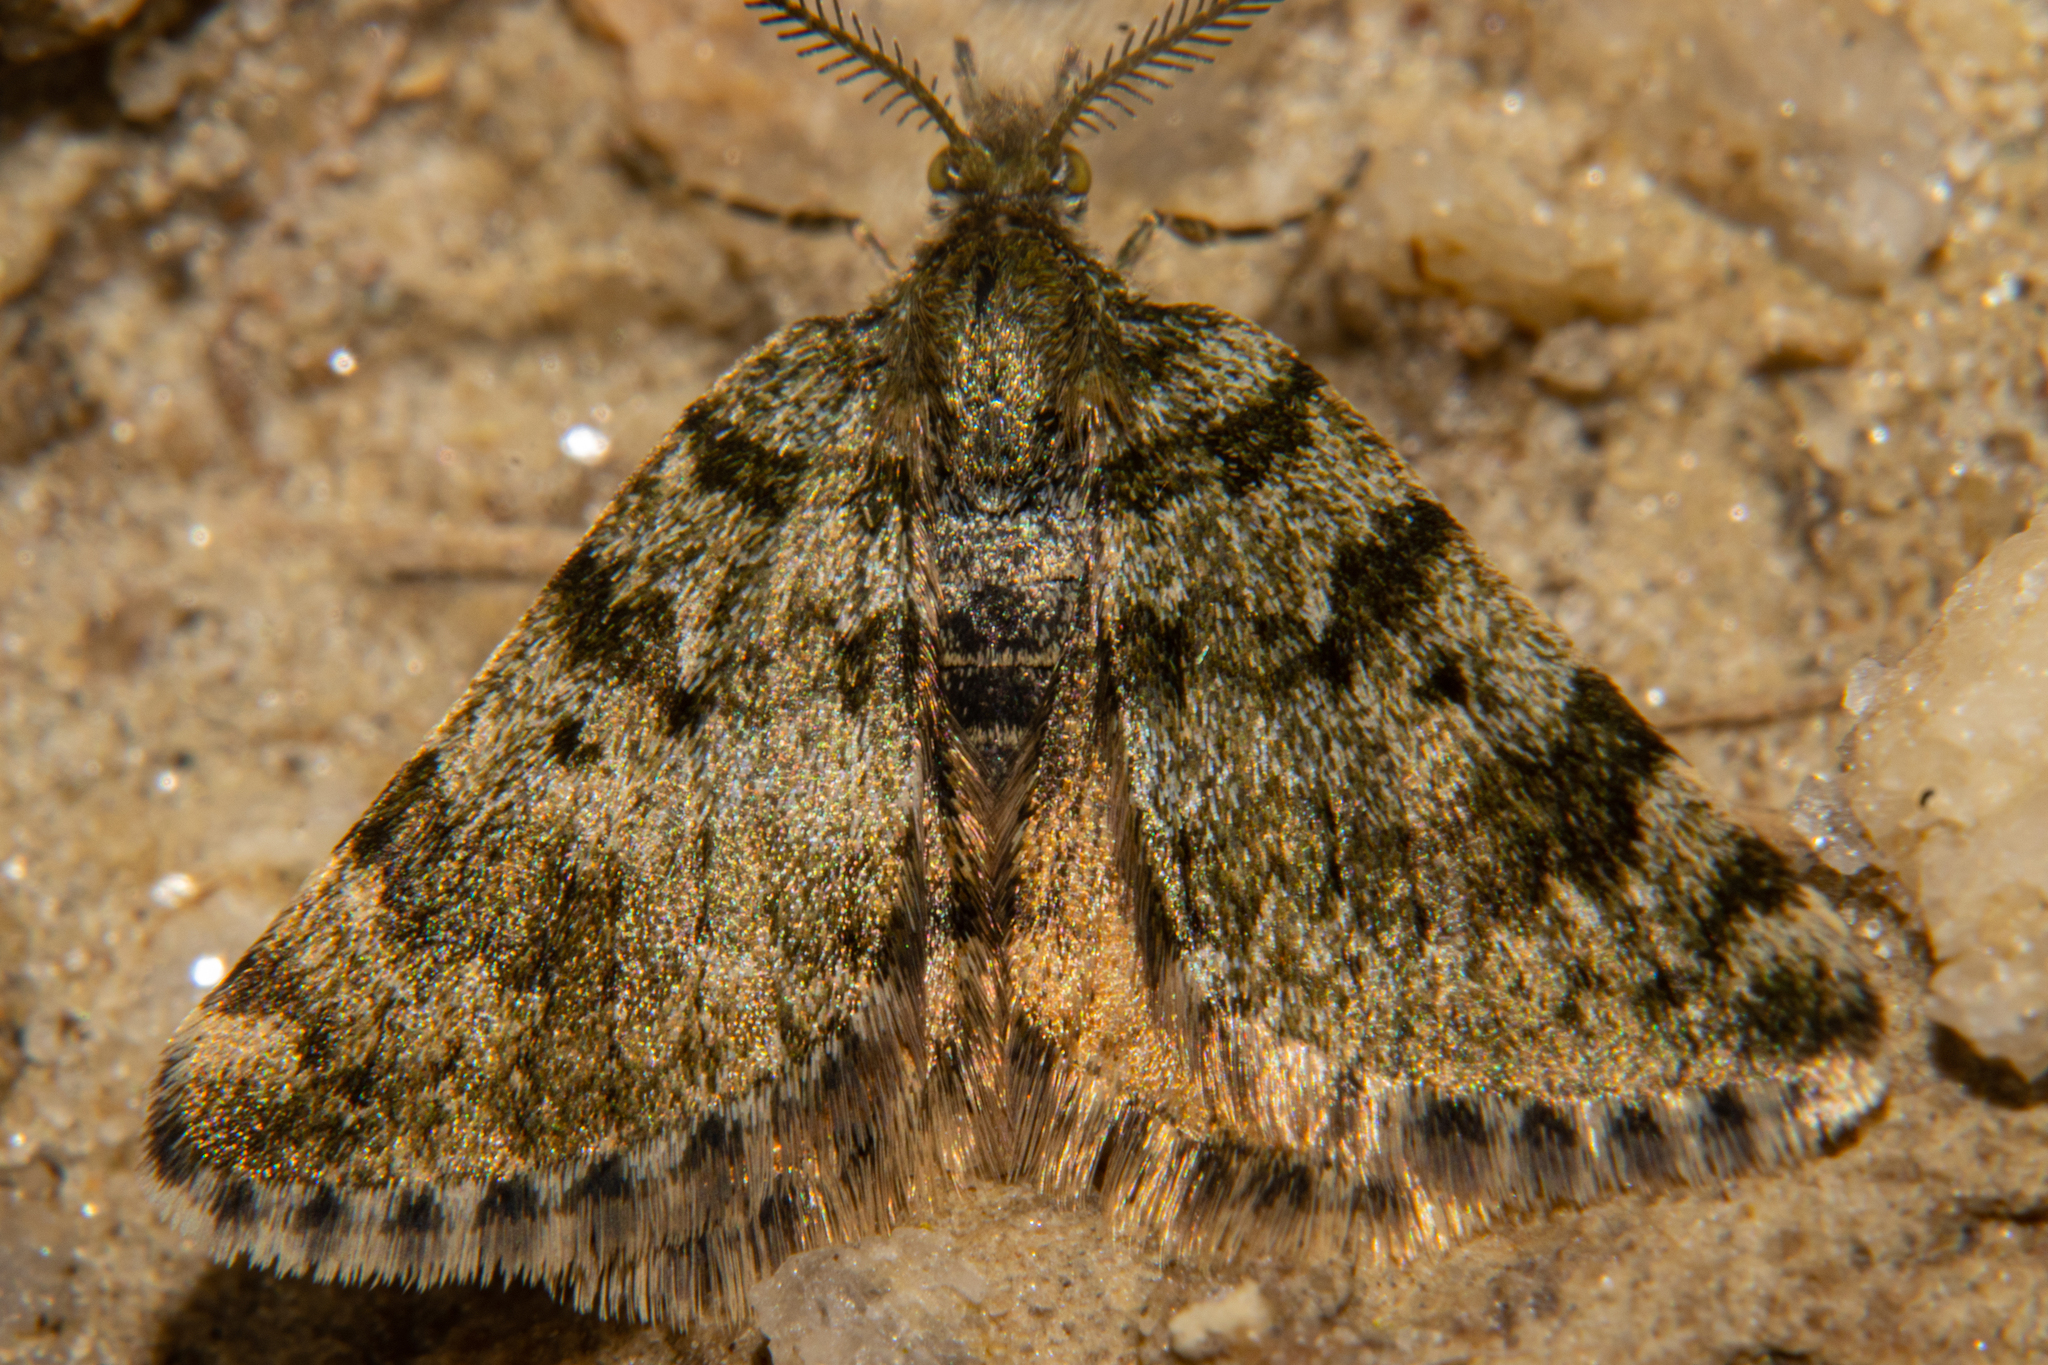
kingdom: Animalia
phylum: Arthropoda
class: Insecta
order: Lepidoptera
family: Geometridae
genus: Paranotoreas
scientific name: Paranotoreas fulva
